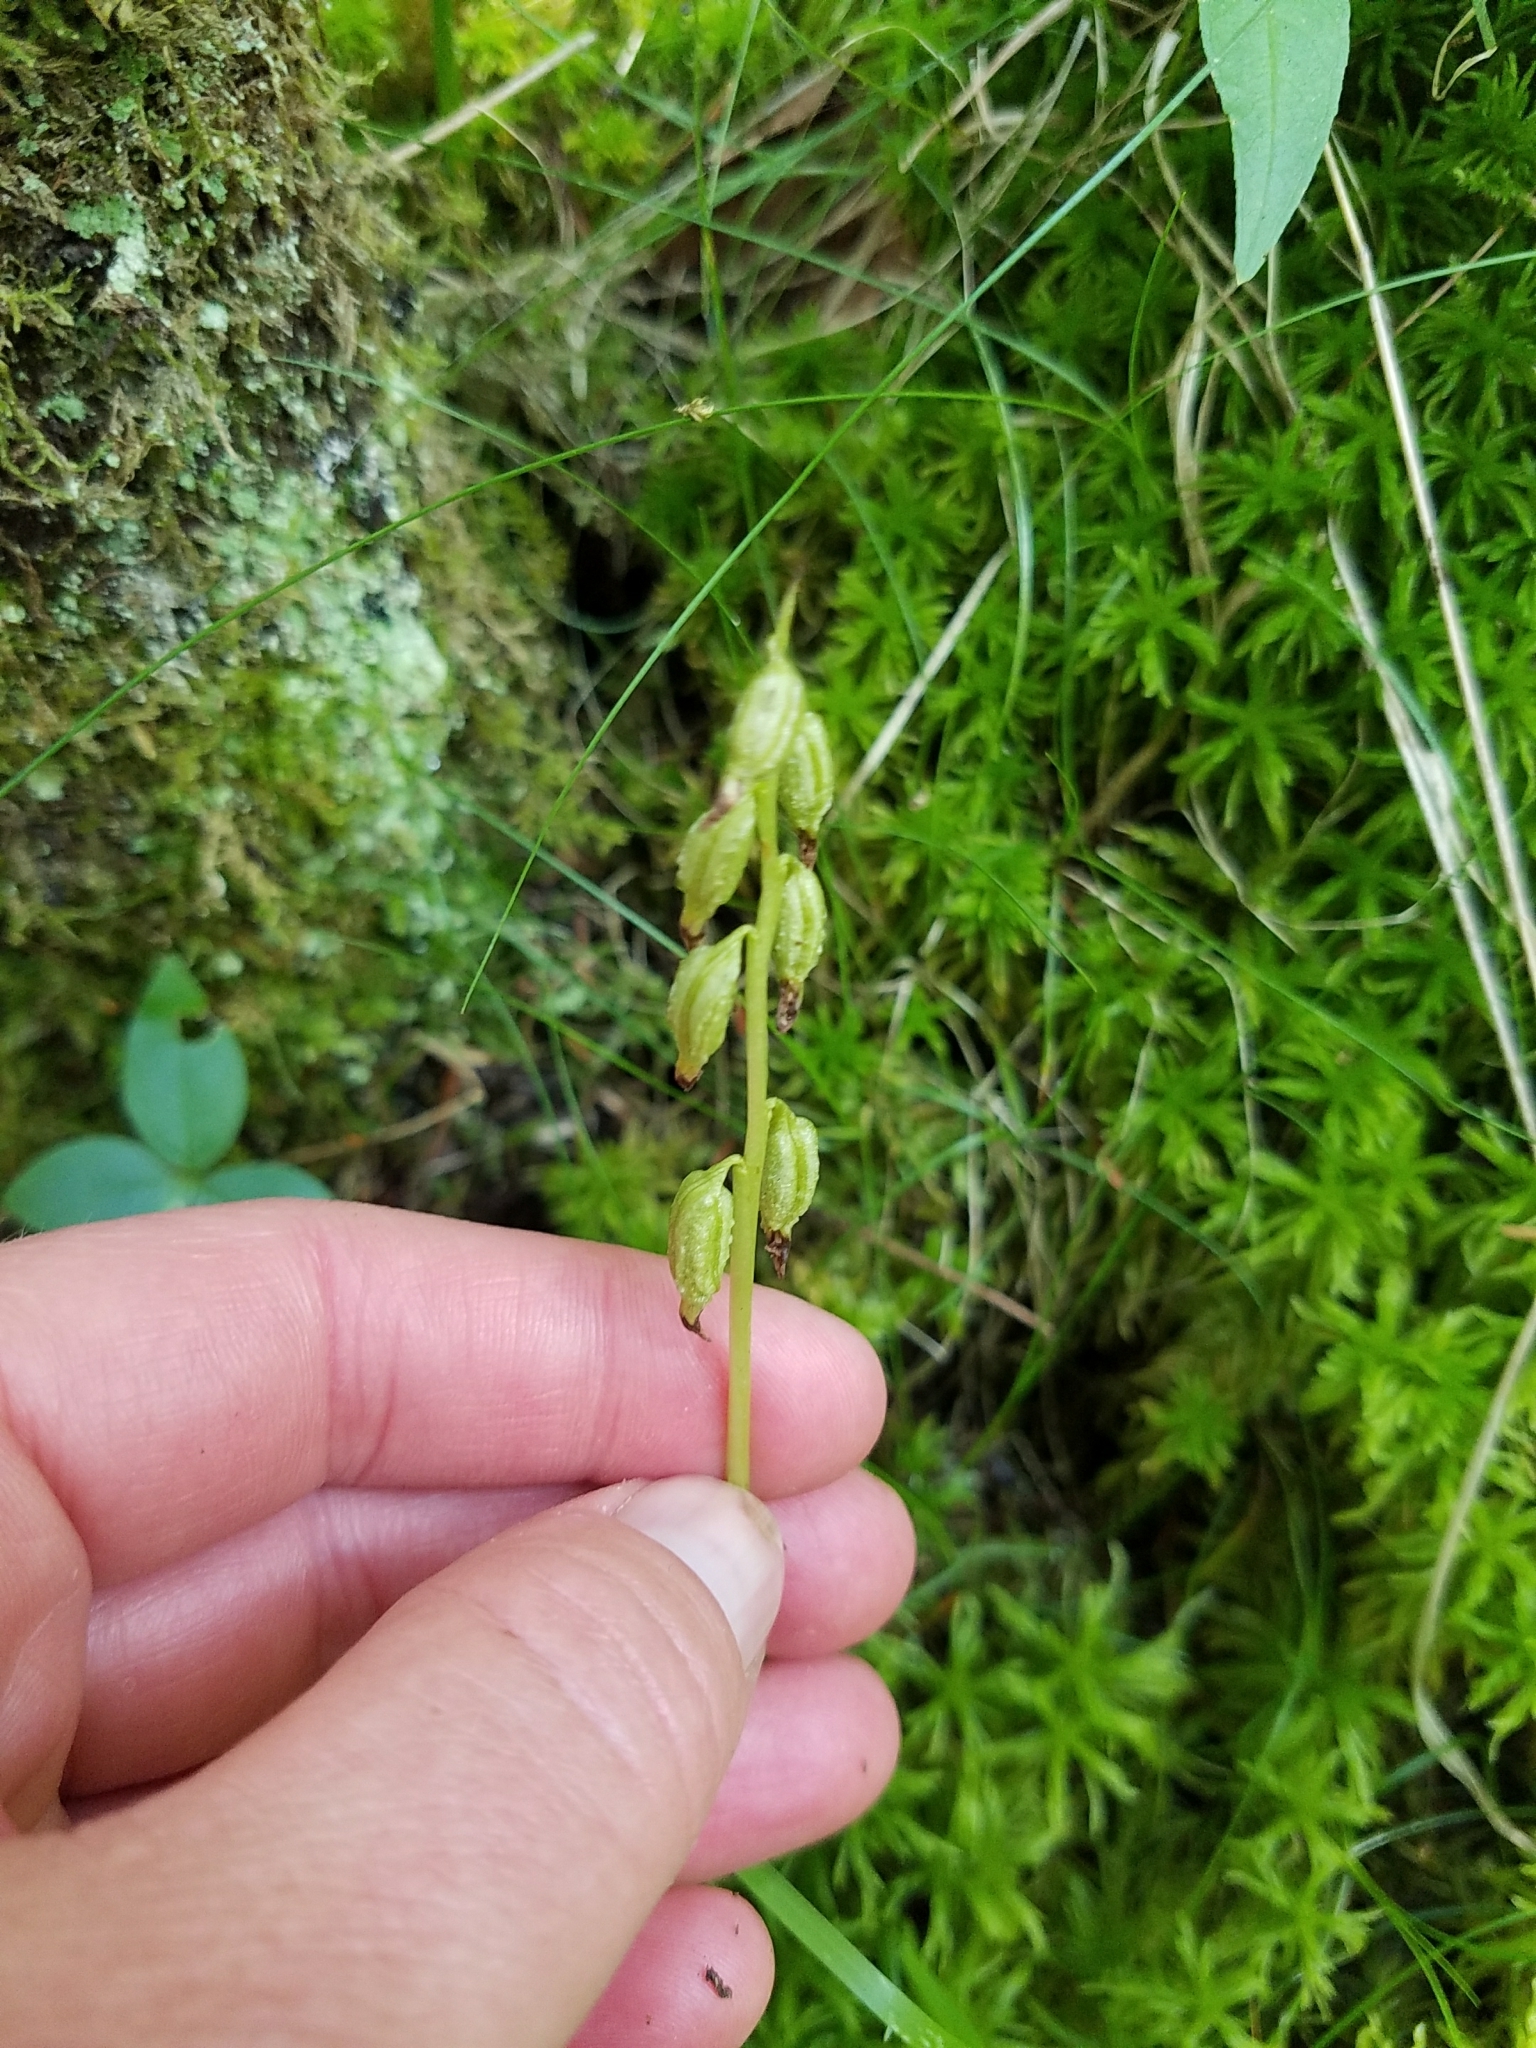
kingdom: Plantae
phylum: Tracheophyta
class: Liliopsida
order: Asparagales
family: Orchidaceae
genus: Corallorhiza
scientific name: Corallorhiza trifida
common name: Yellow coralroot
